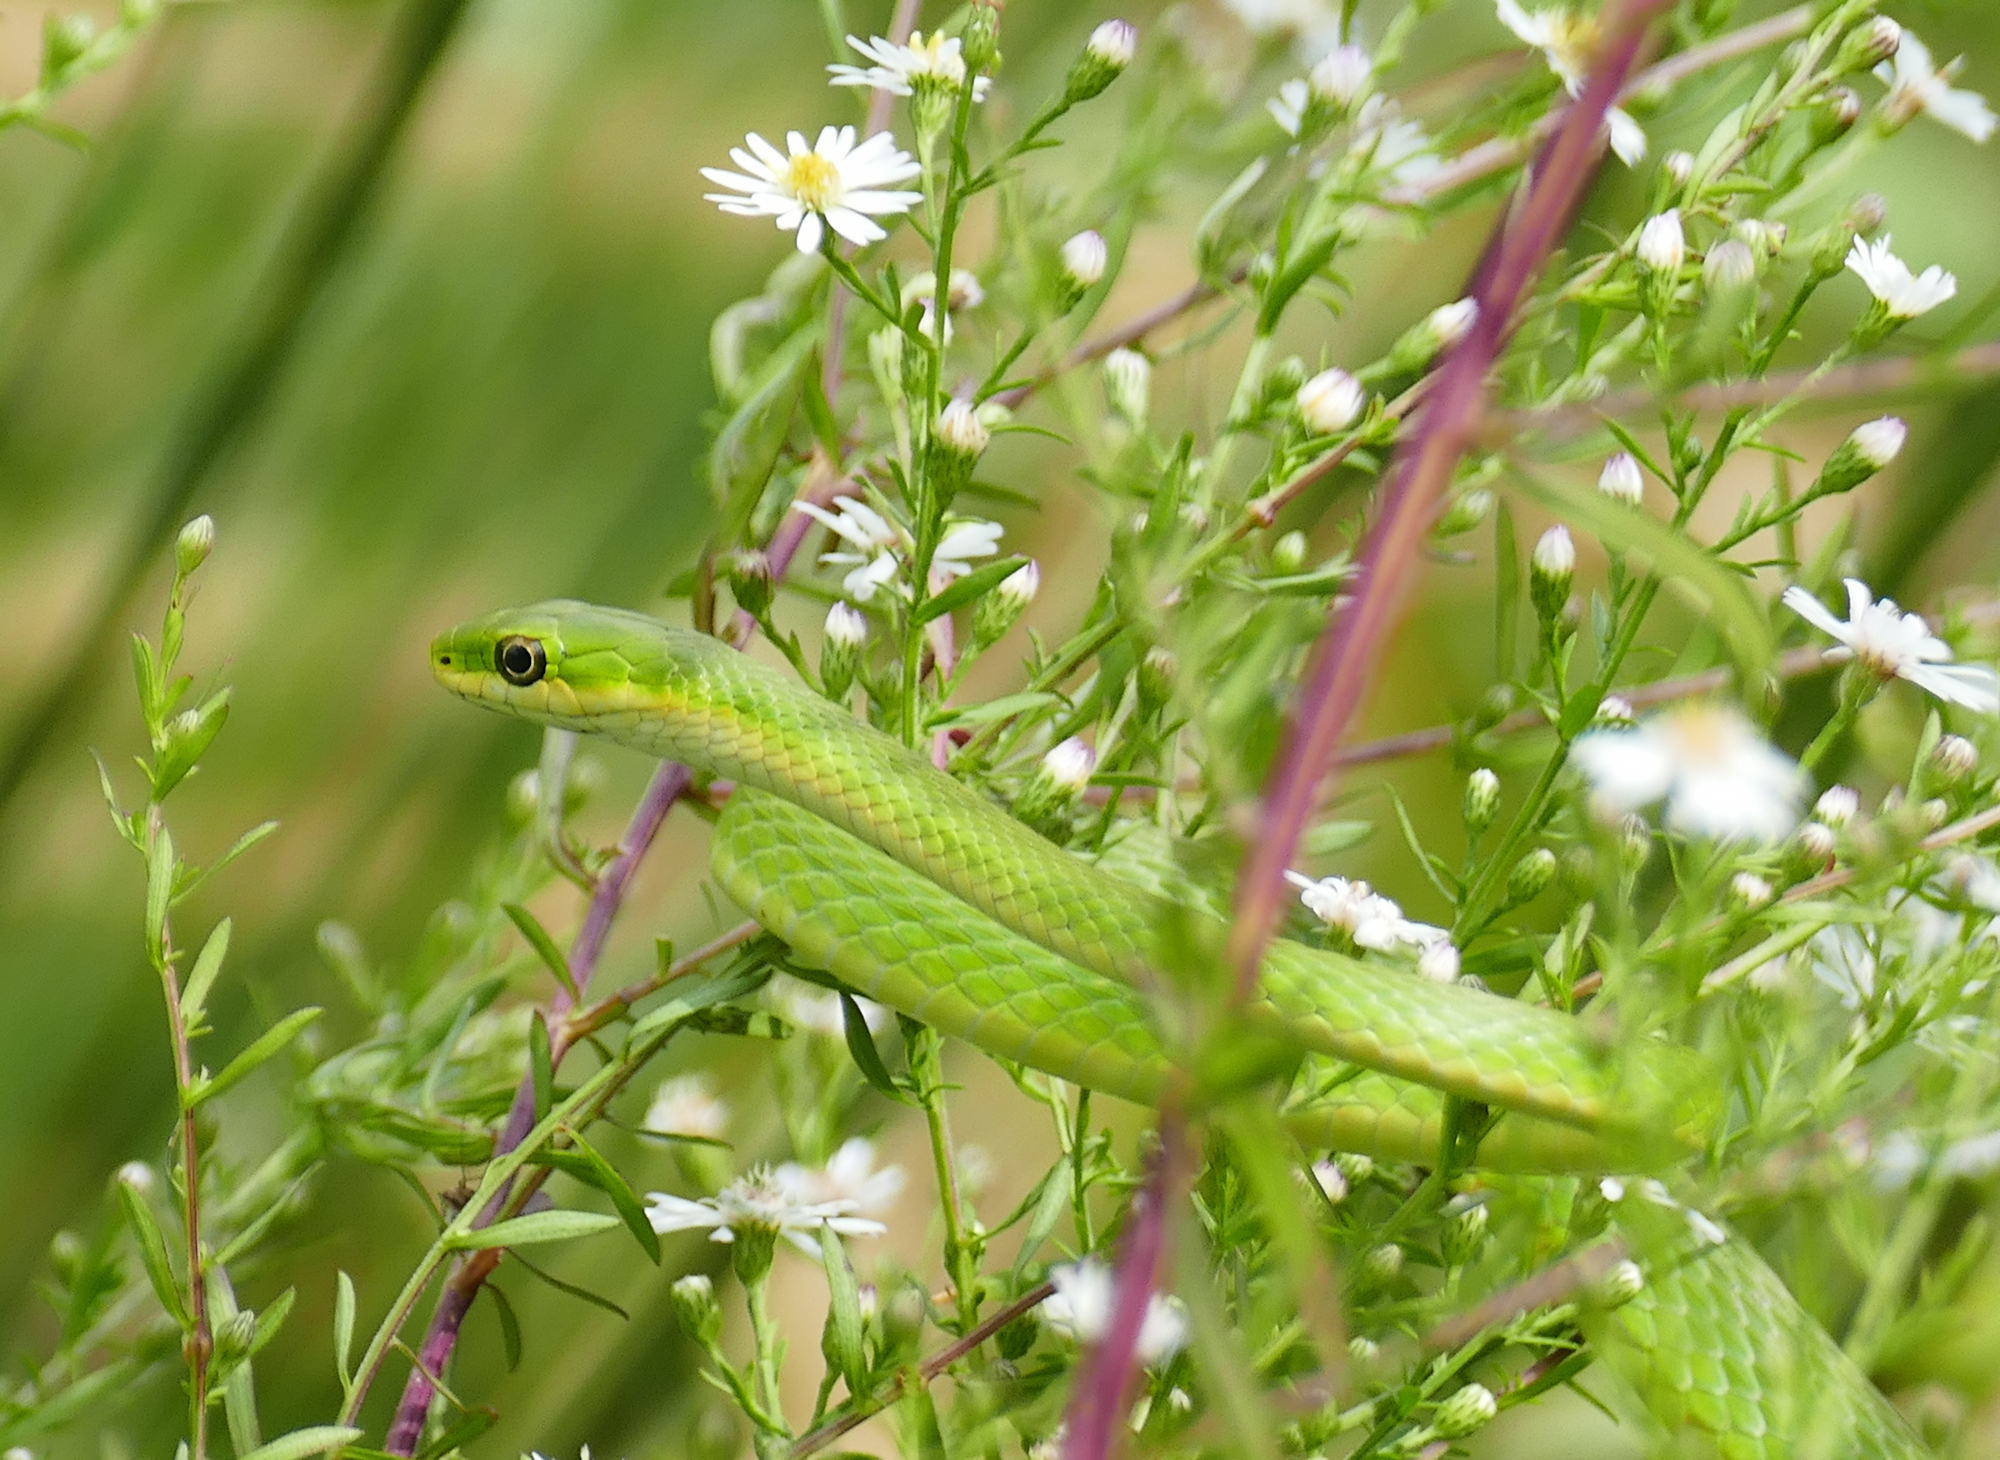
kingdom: Animalia
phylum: Chordata
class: Squamata
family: Colubridae
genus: Opheodrys
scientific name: Opheodrys aestivus
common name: Rough greensnake
